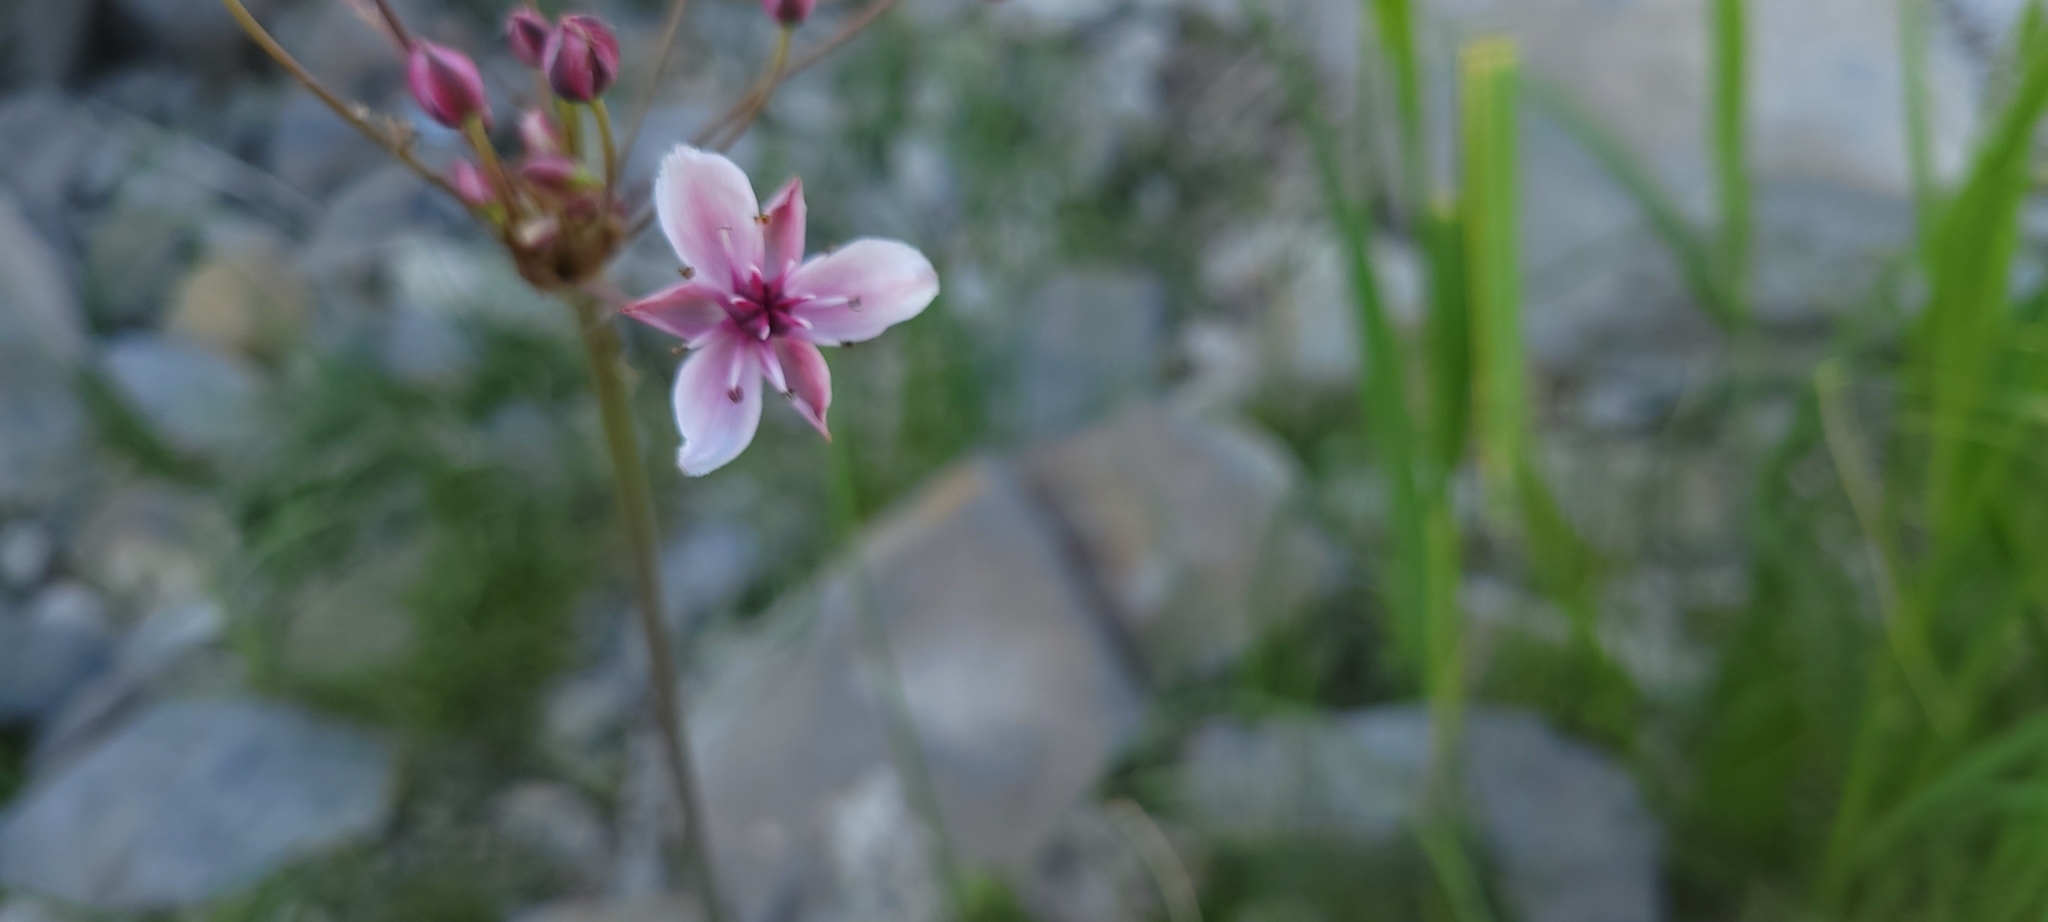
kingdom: Plantae
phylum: Tracheophyta
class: Liliopsida
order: Alismatales
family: Butomaceae
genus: Butomus
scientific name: Butomus umbellatus
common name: Flowering-rush
